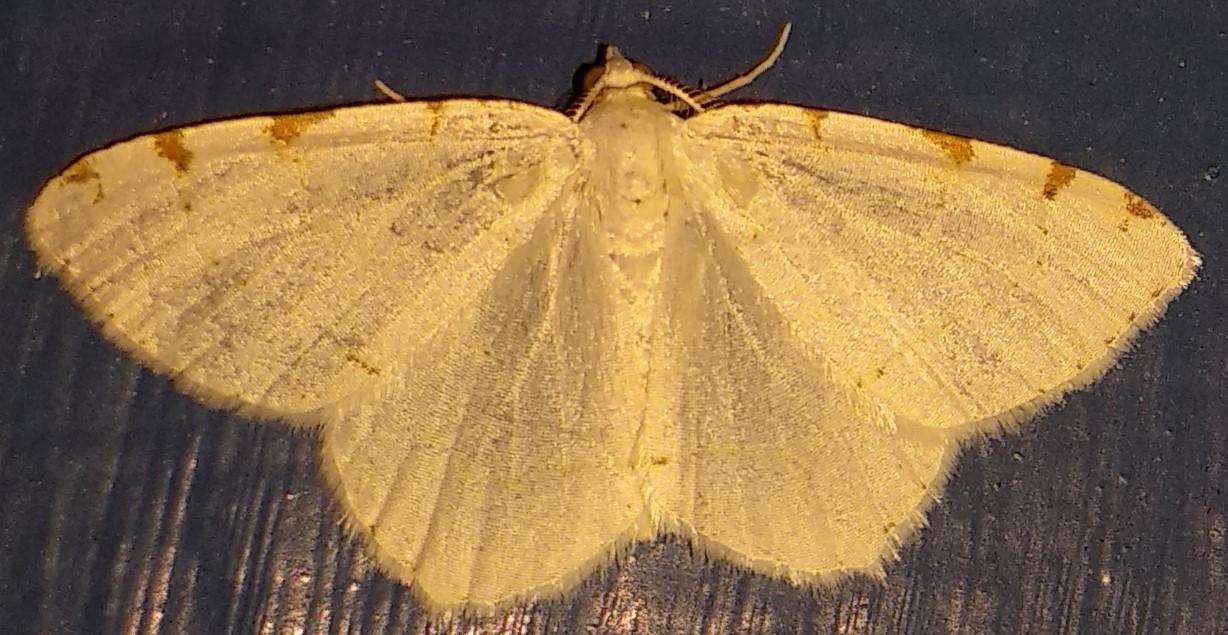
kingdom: Animalia
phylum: Arthropoda
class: Insecta
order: Lepidoptera
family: Geometridae
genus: Macaria
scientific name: Macaria pustularia
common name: Lesser maple spanworm moth
